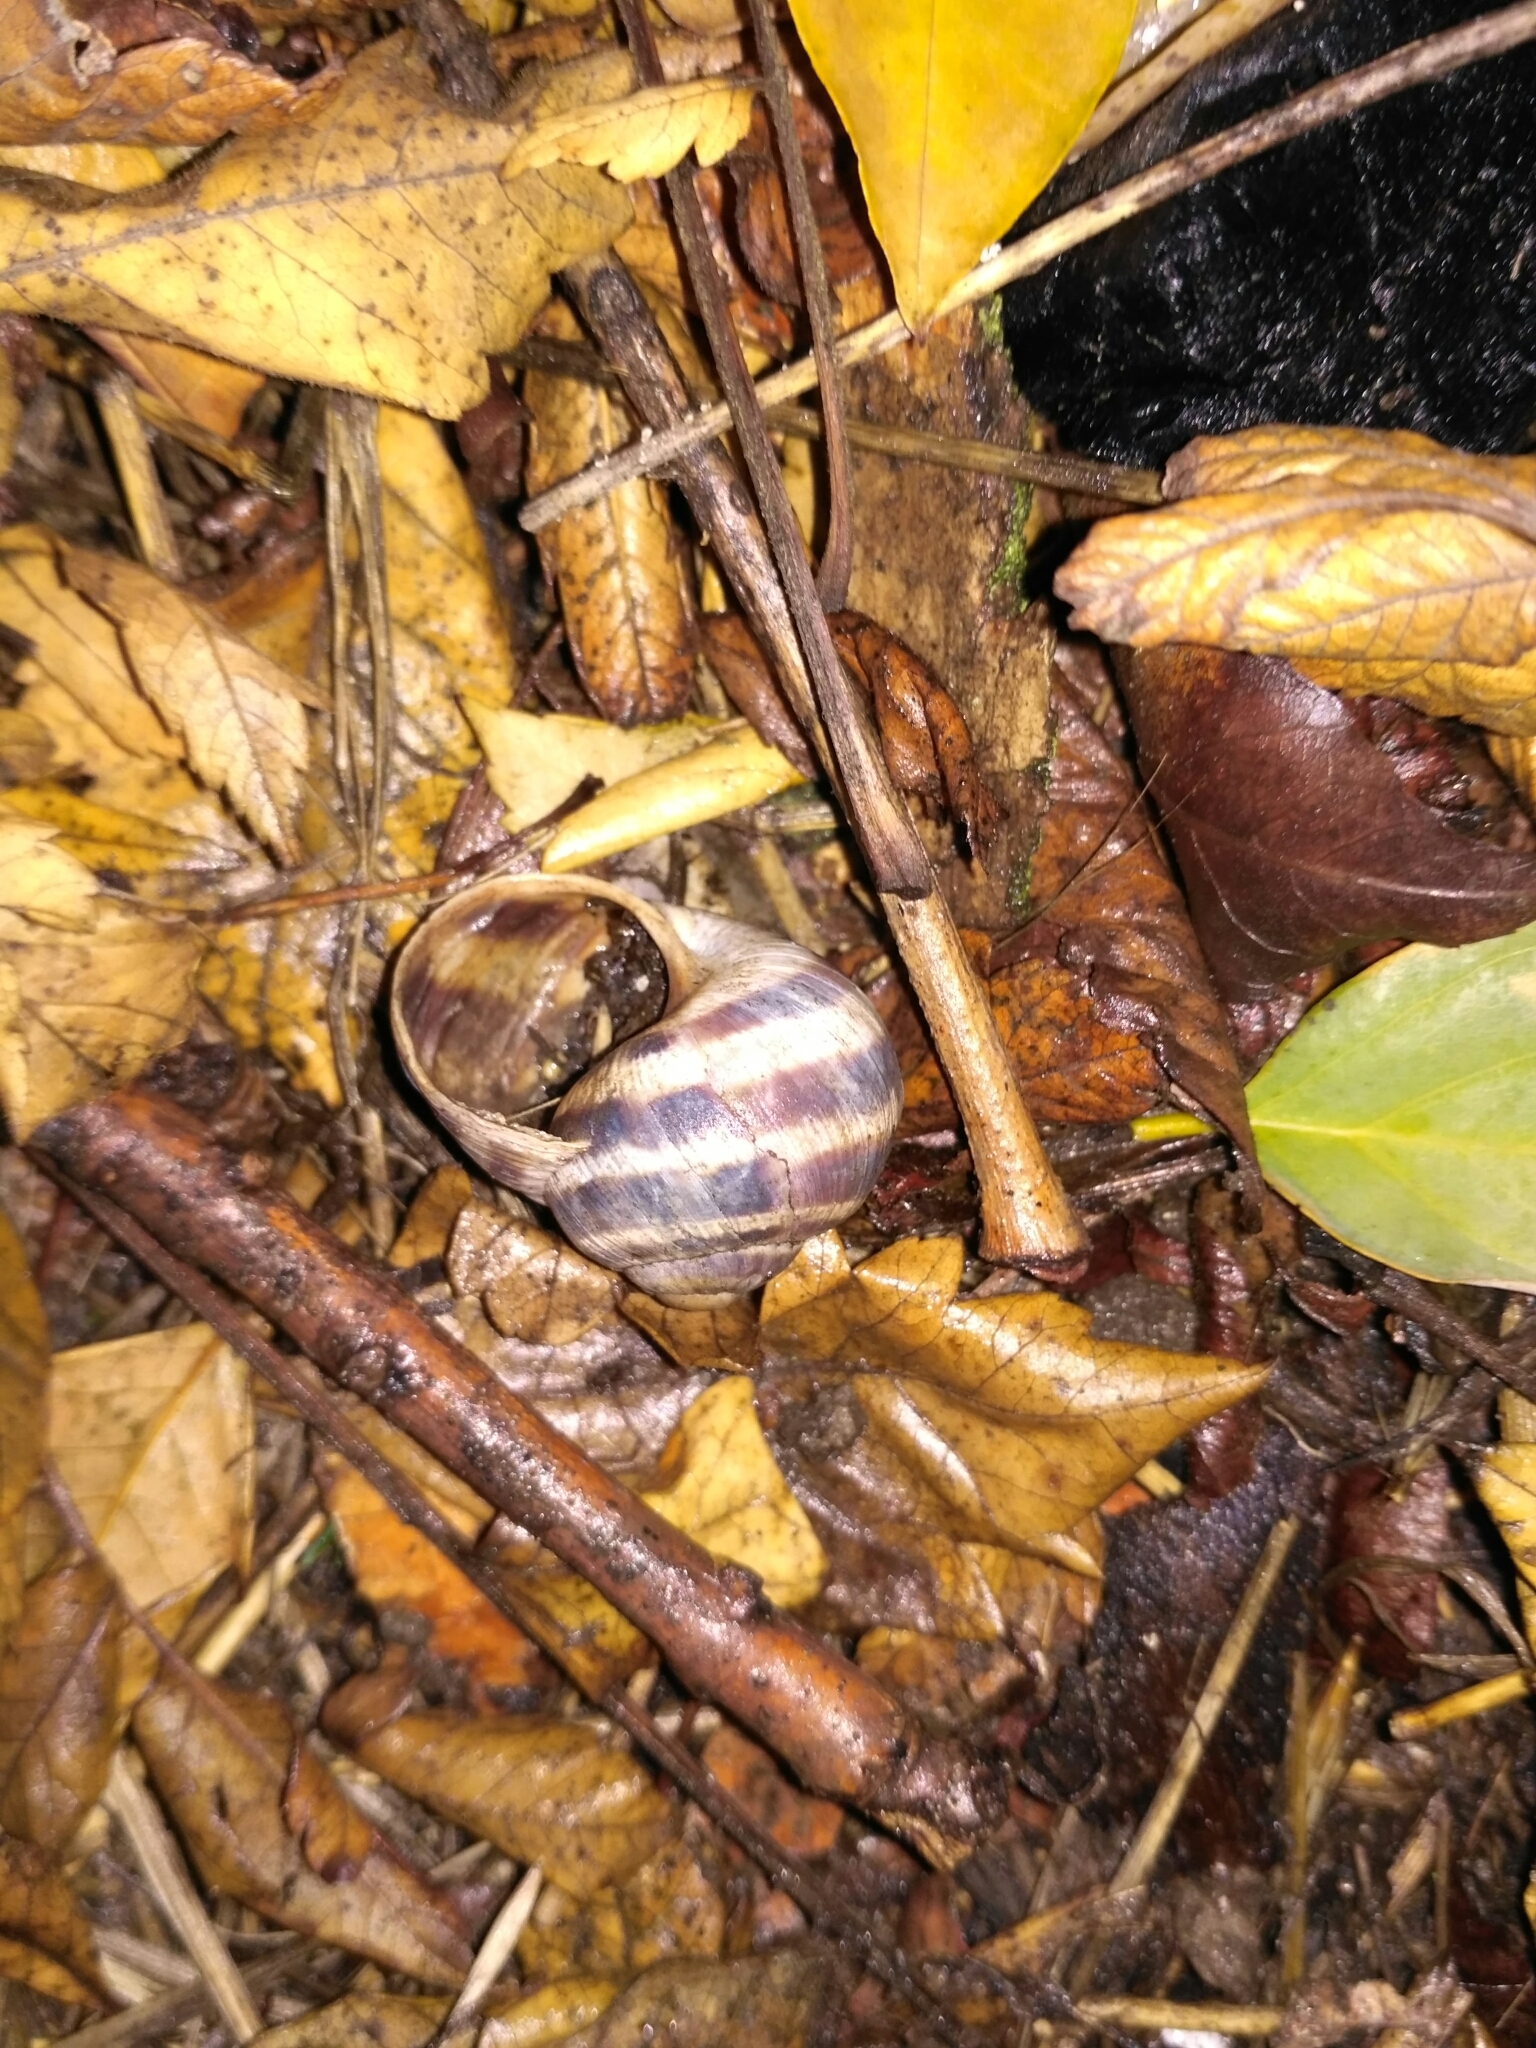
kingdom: Animalia
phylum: Mollusca
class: Gastropoda
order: Stylommatophora
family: Helicidae
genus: Helix
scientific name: Helix albescens
